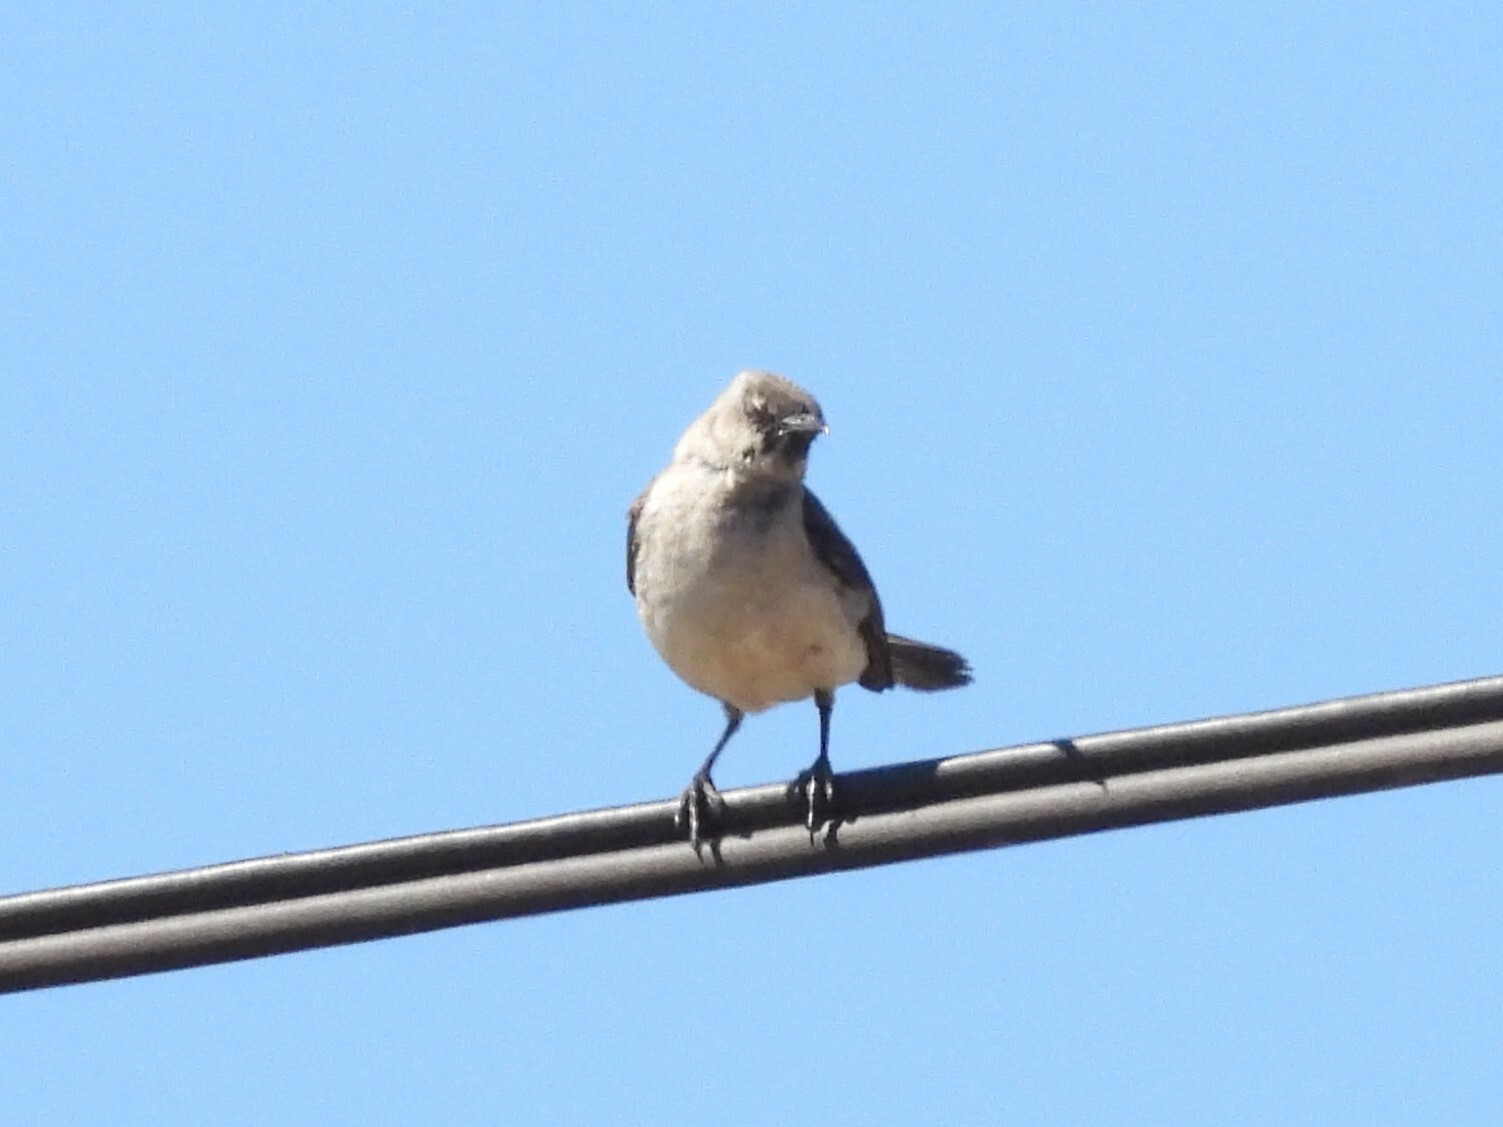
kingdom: Animalia
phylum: Chordata
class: Aves
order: Passeriformes
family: Mimidae
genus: Mimus
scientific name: Mimus polyglottos
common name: Northern mockingbird
